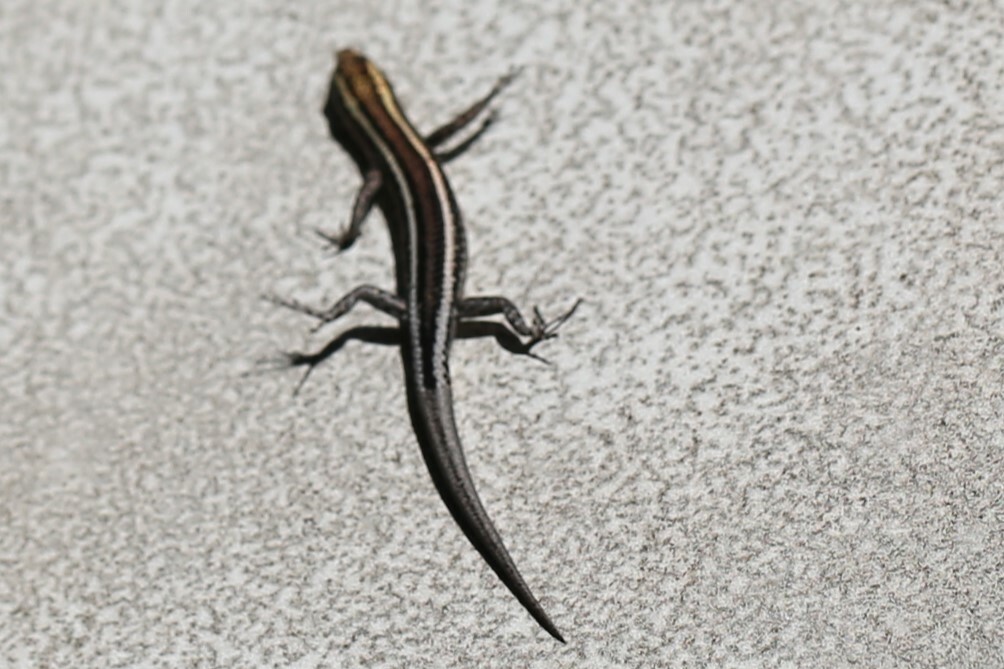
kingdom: Animalia
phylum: Chordata
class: Squamata
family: Scincidae
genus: Cryptoblepharus
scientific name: Cryptoblepharus pulcher
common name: Elegant snake-eyed skink
